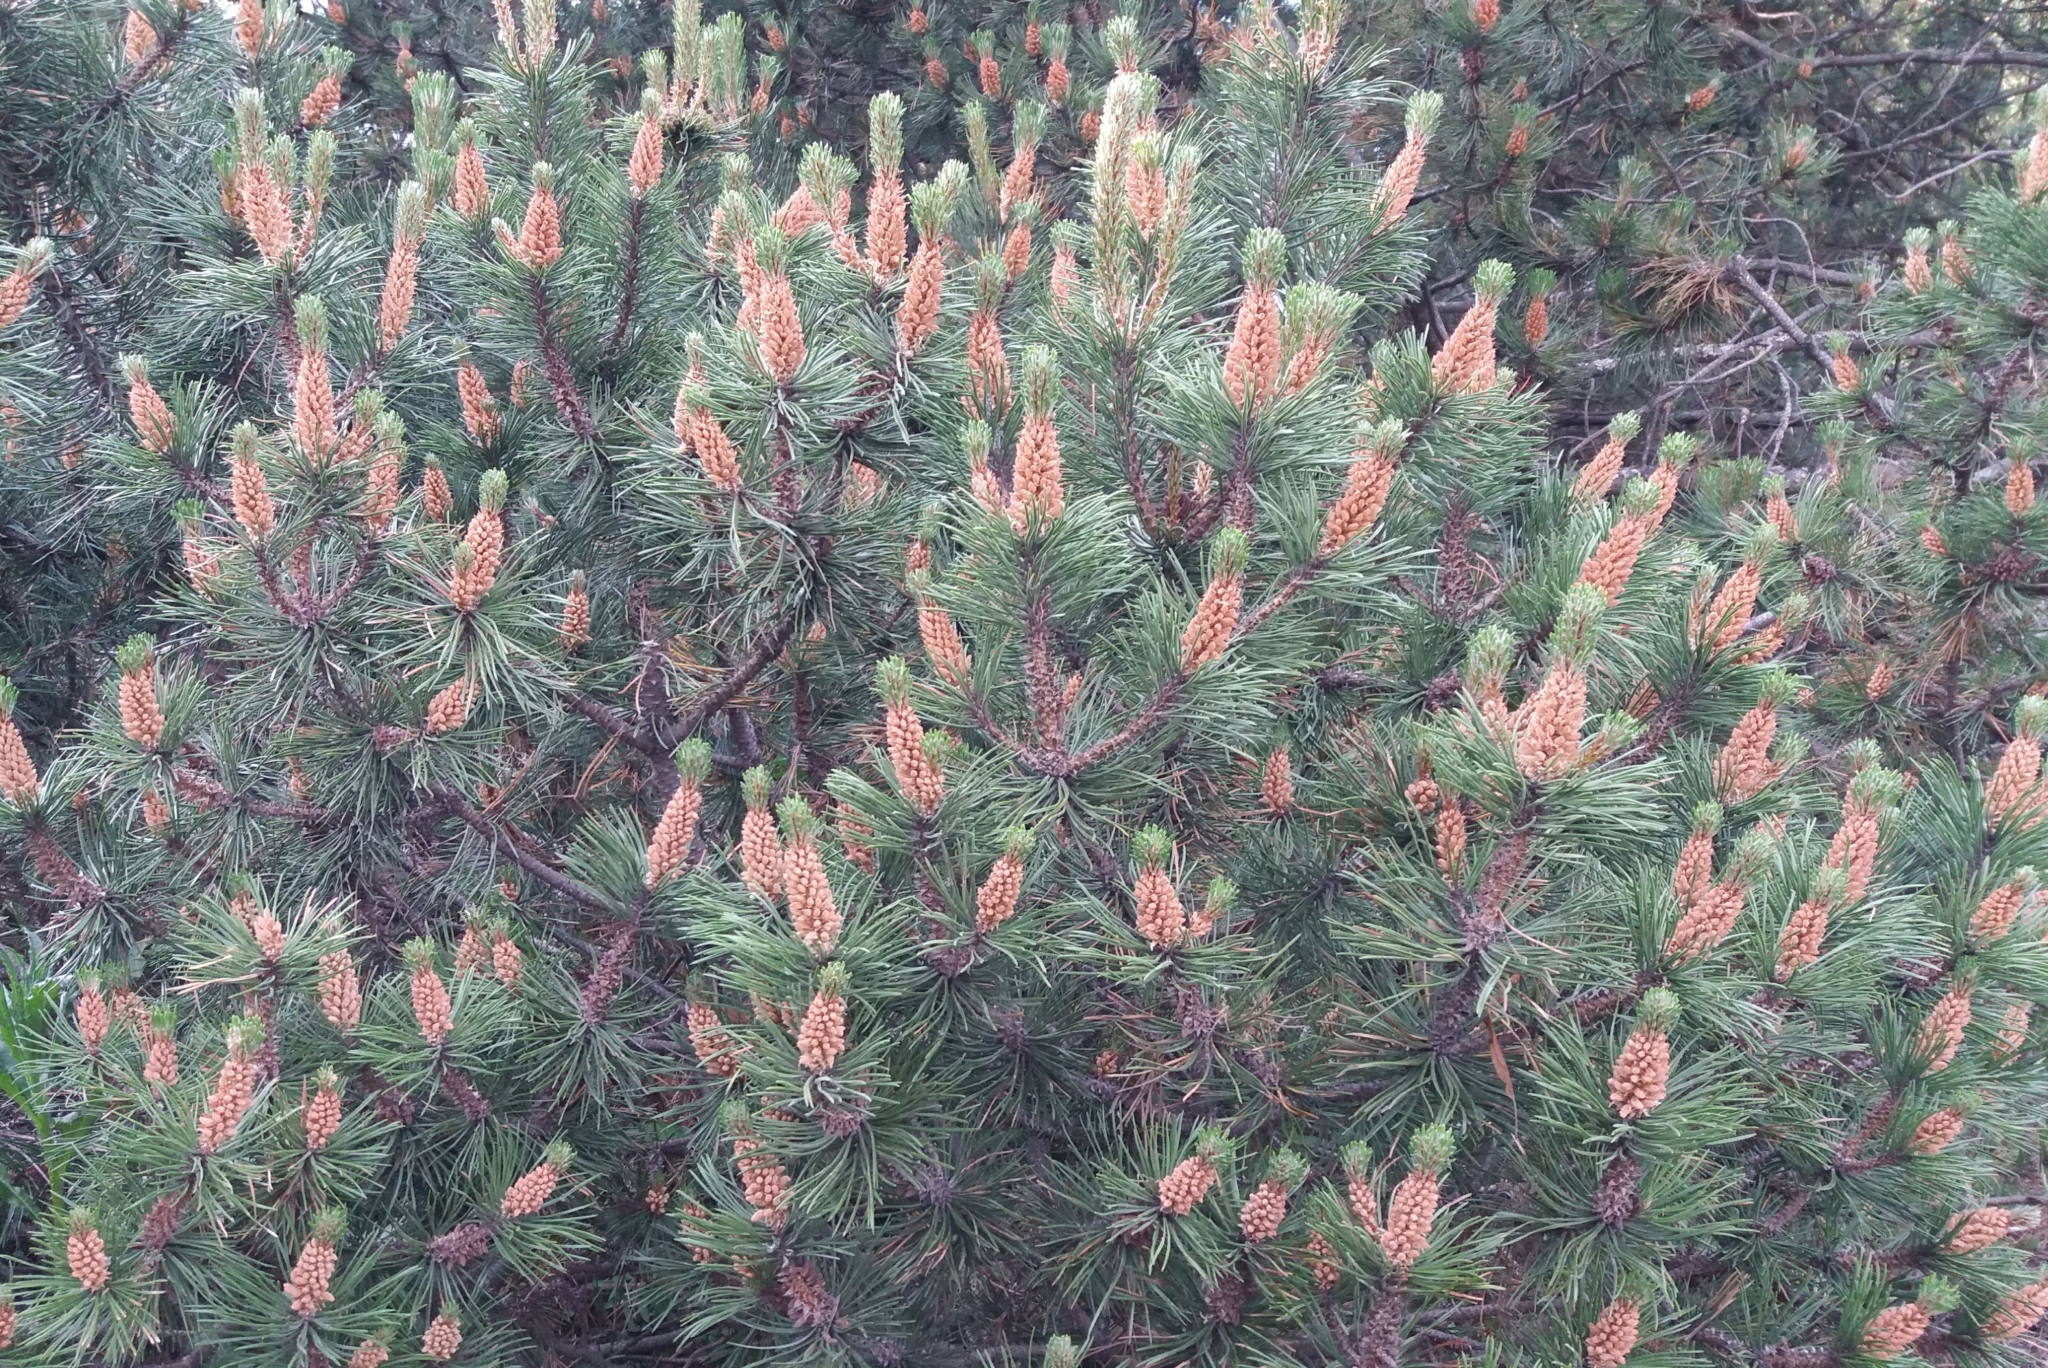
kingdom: Plantae
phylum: Tracheophyta
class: Pinopsida
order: Pinales
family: Pinaceae
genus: Pinus
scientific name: Pinus sylvestris
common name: Scots pine
